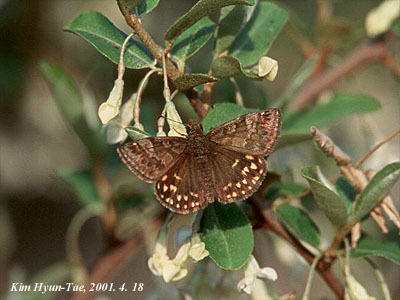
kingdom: Animalia
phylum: Arthropoda
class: Insecta
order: Lepidoptera
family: Hesperiidae
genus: Erynnis
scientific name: Erynnis montanus
